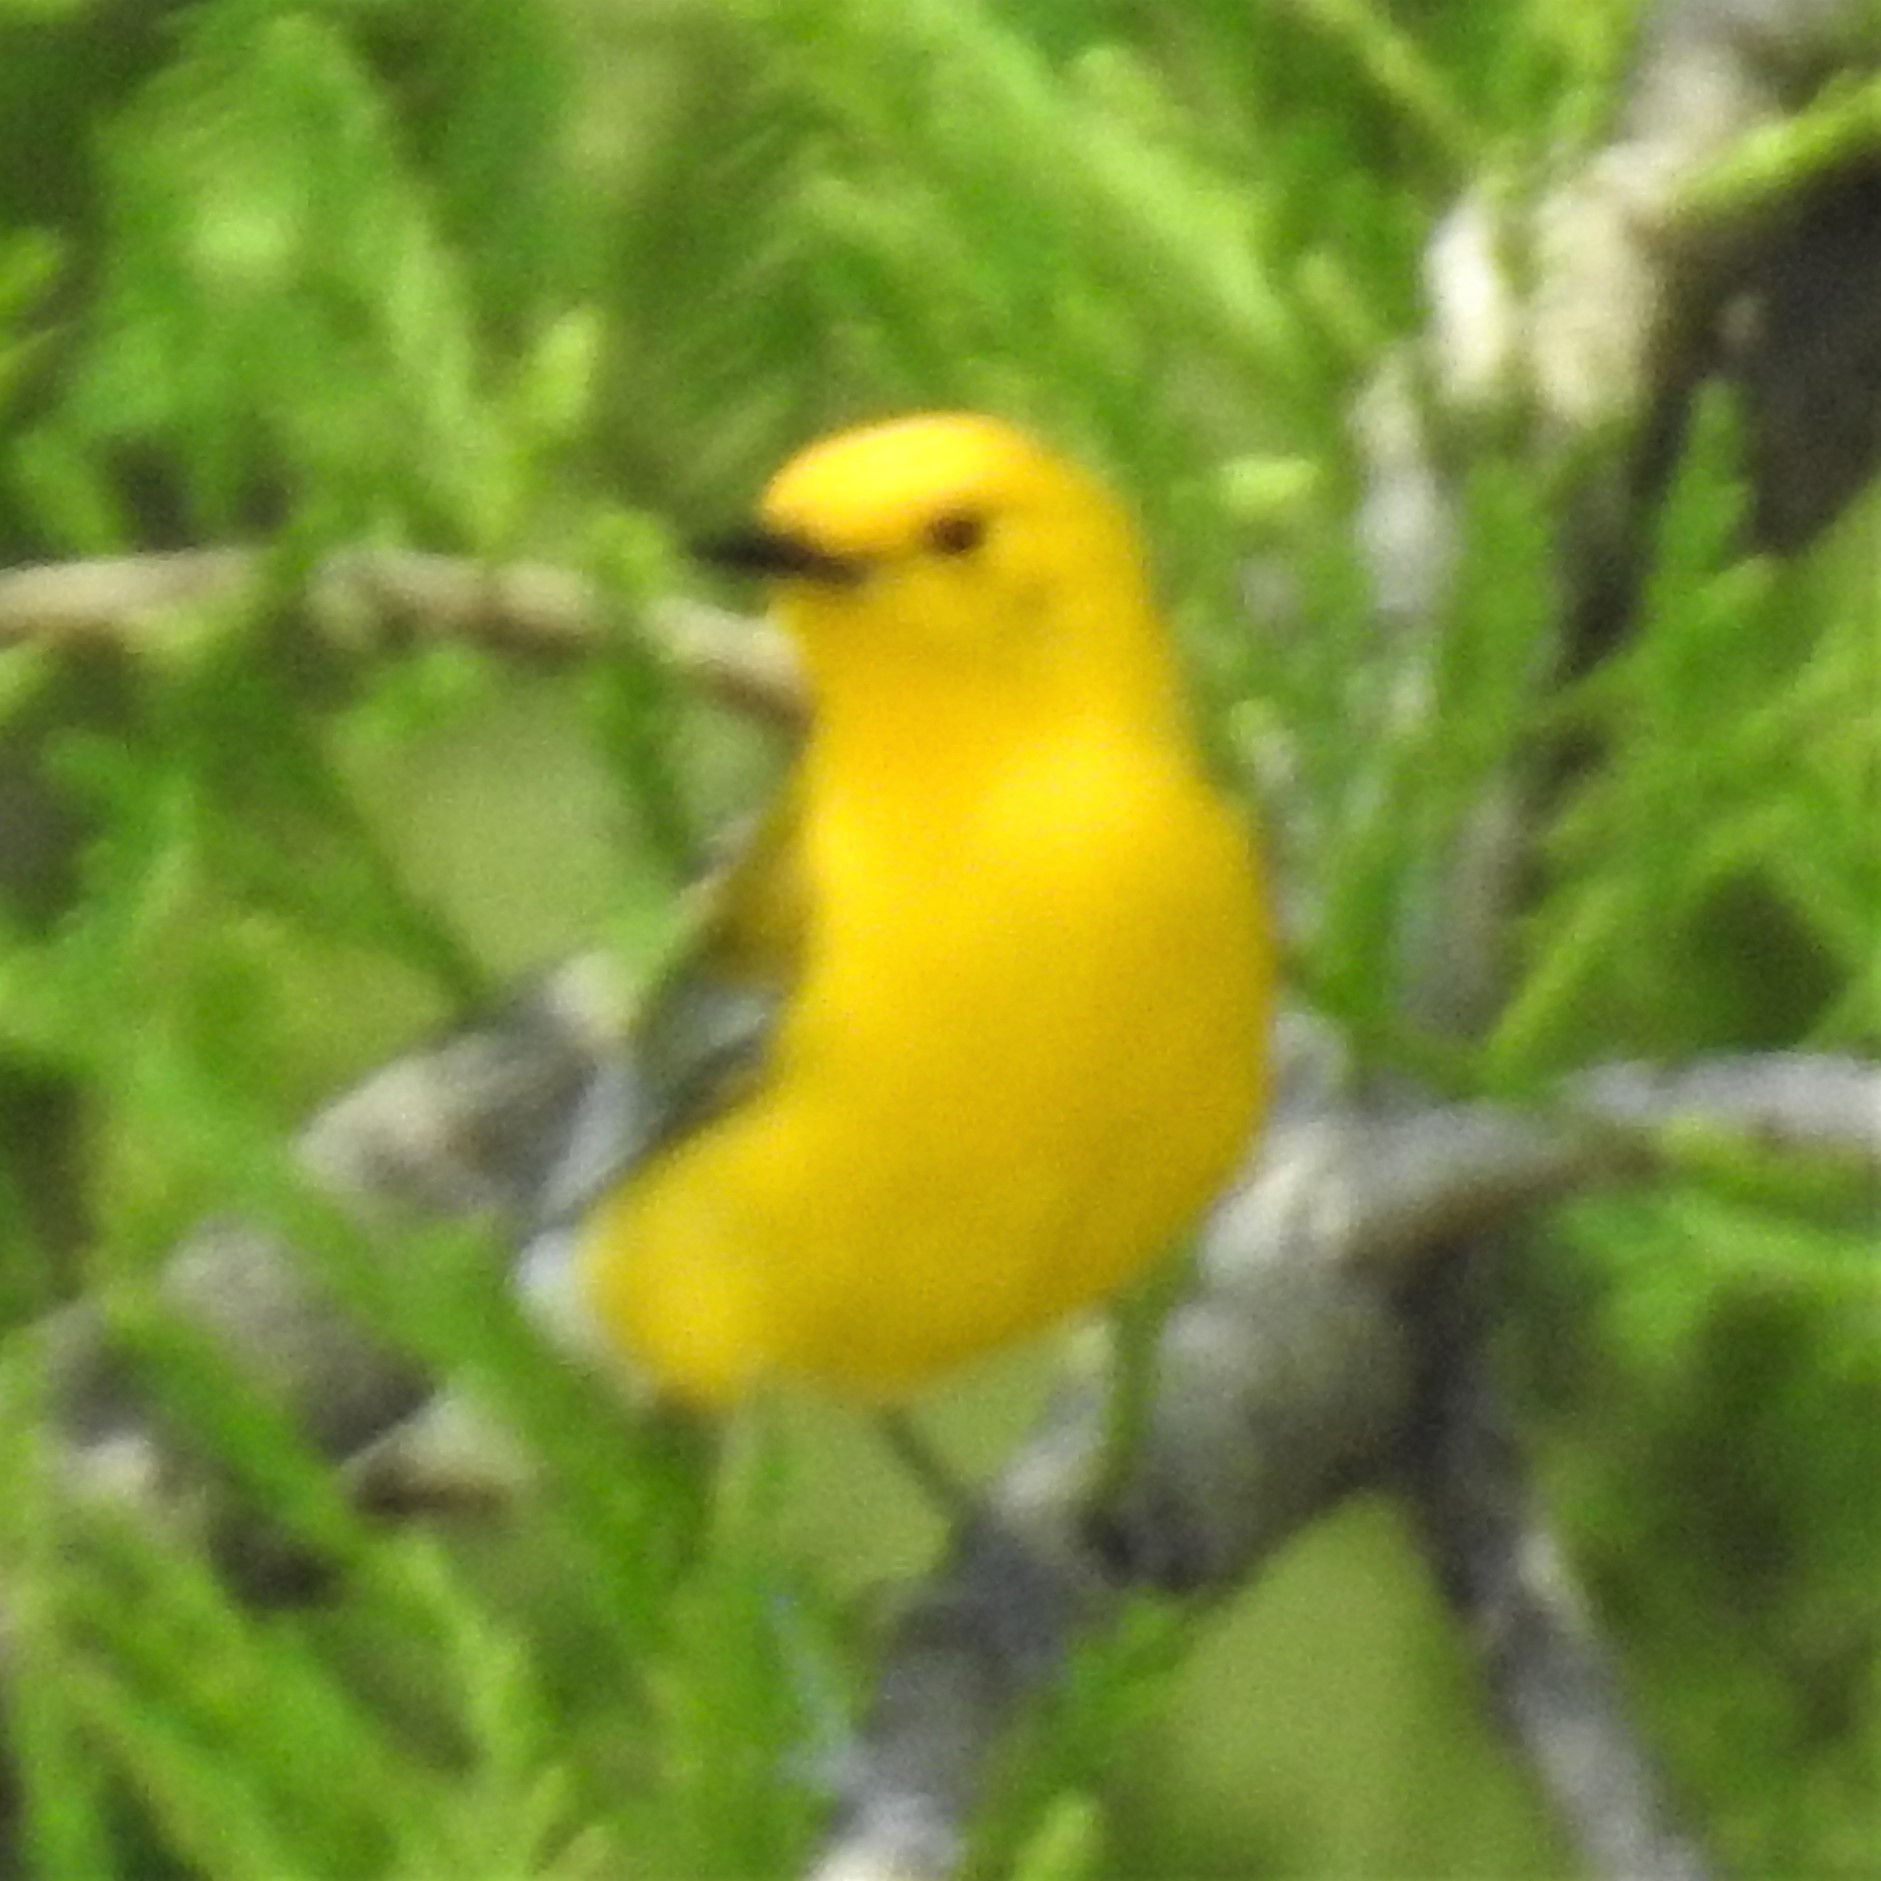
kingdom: Animalia
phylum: Chordata
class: Aves
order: Passeriformes
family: Parulidae
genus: Protonotaria
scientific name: Protonotaria citrea
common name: Prothonotary warbler
